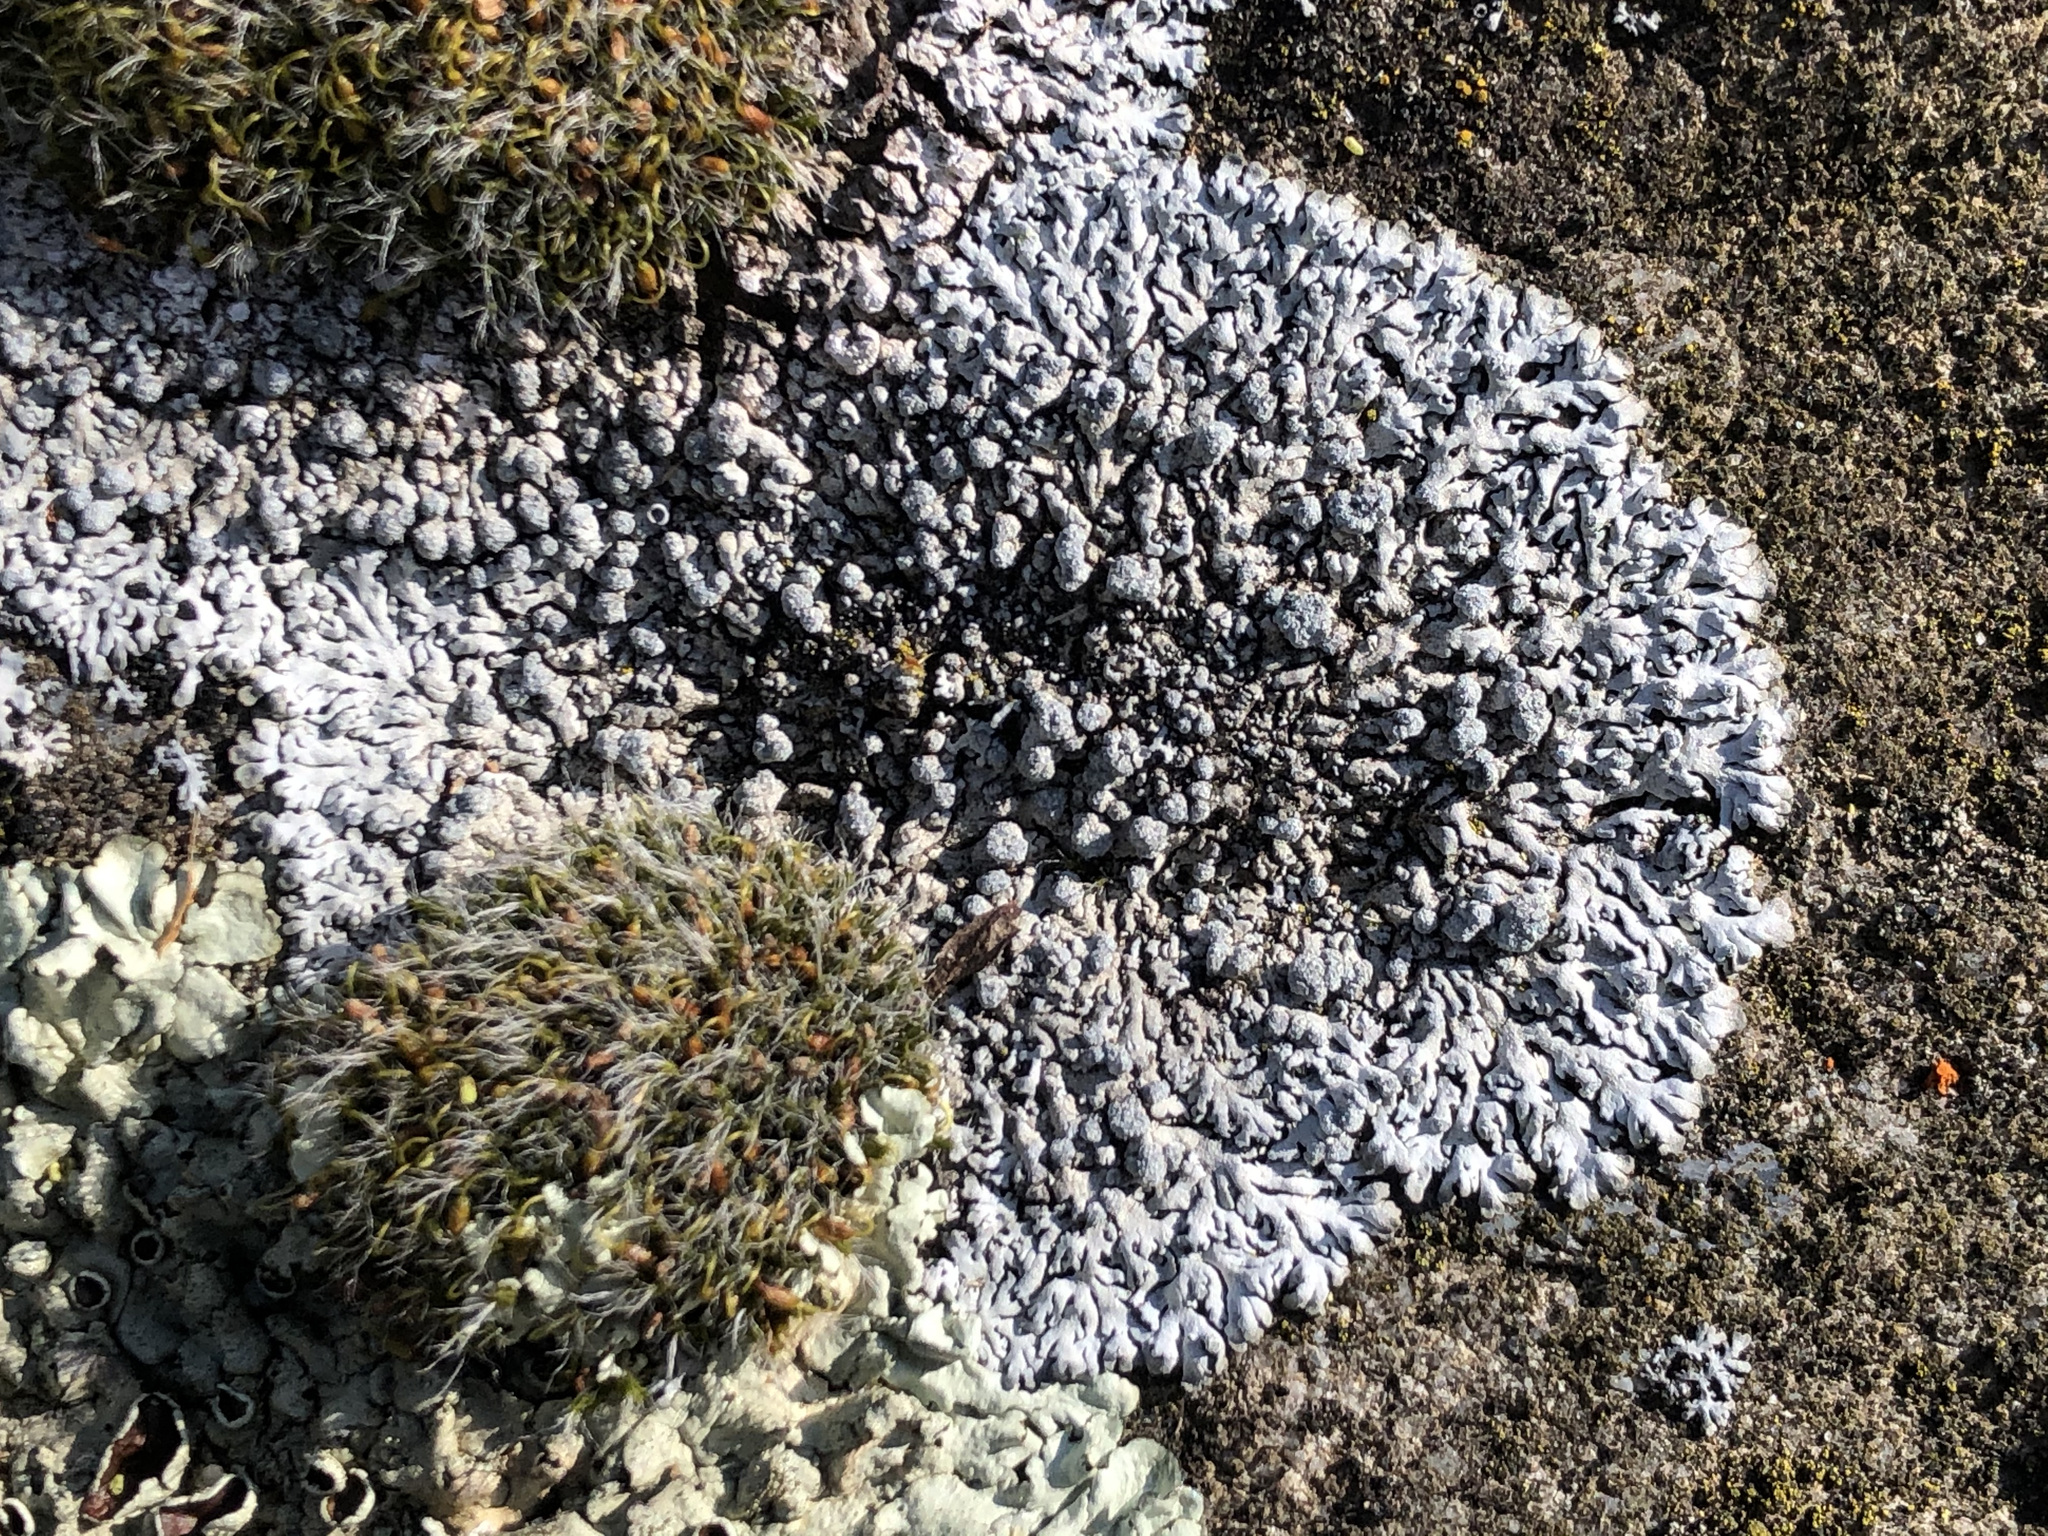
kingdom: Fungi
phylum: Ascomycota
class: Lecanoromycetes
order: Caliciales
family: Physciaceae
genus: Physcia
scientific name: Physcia caesia
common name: Blue-gray rosette lichen
